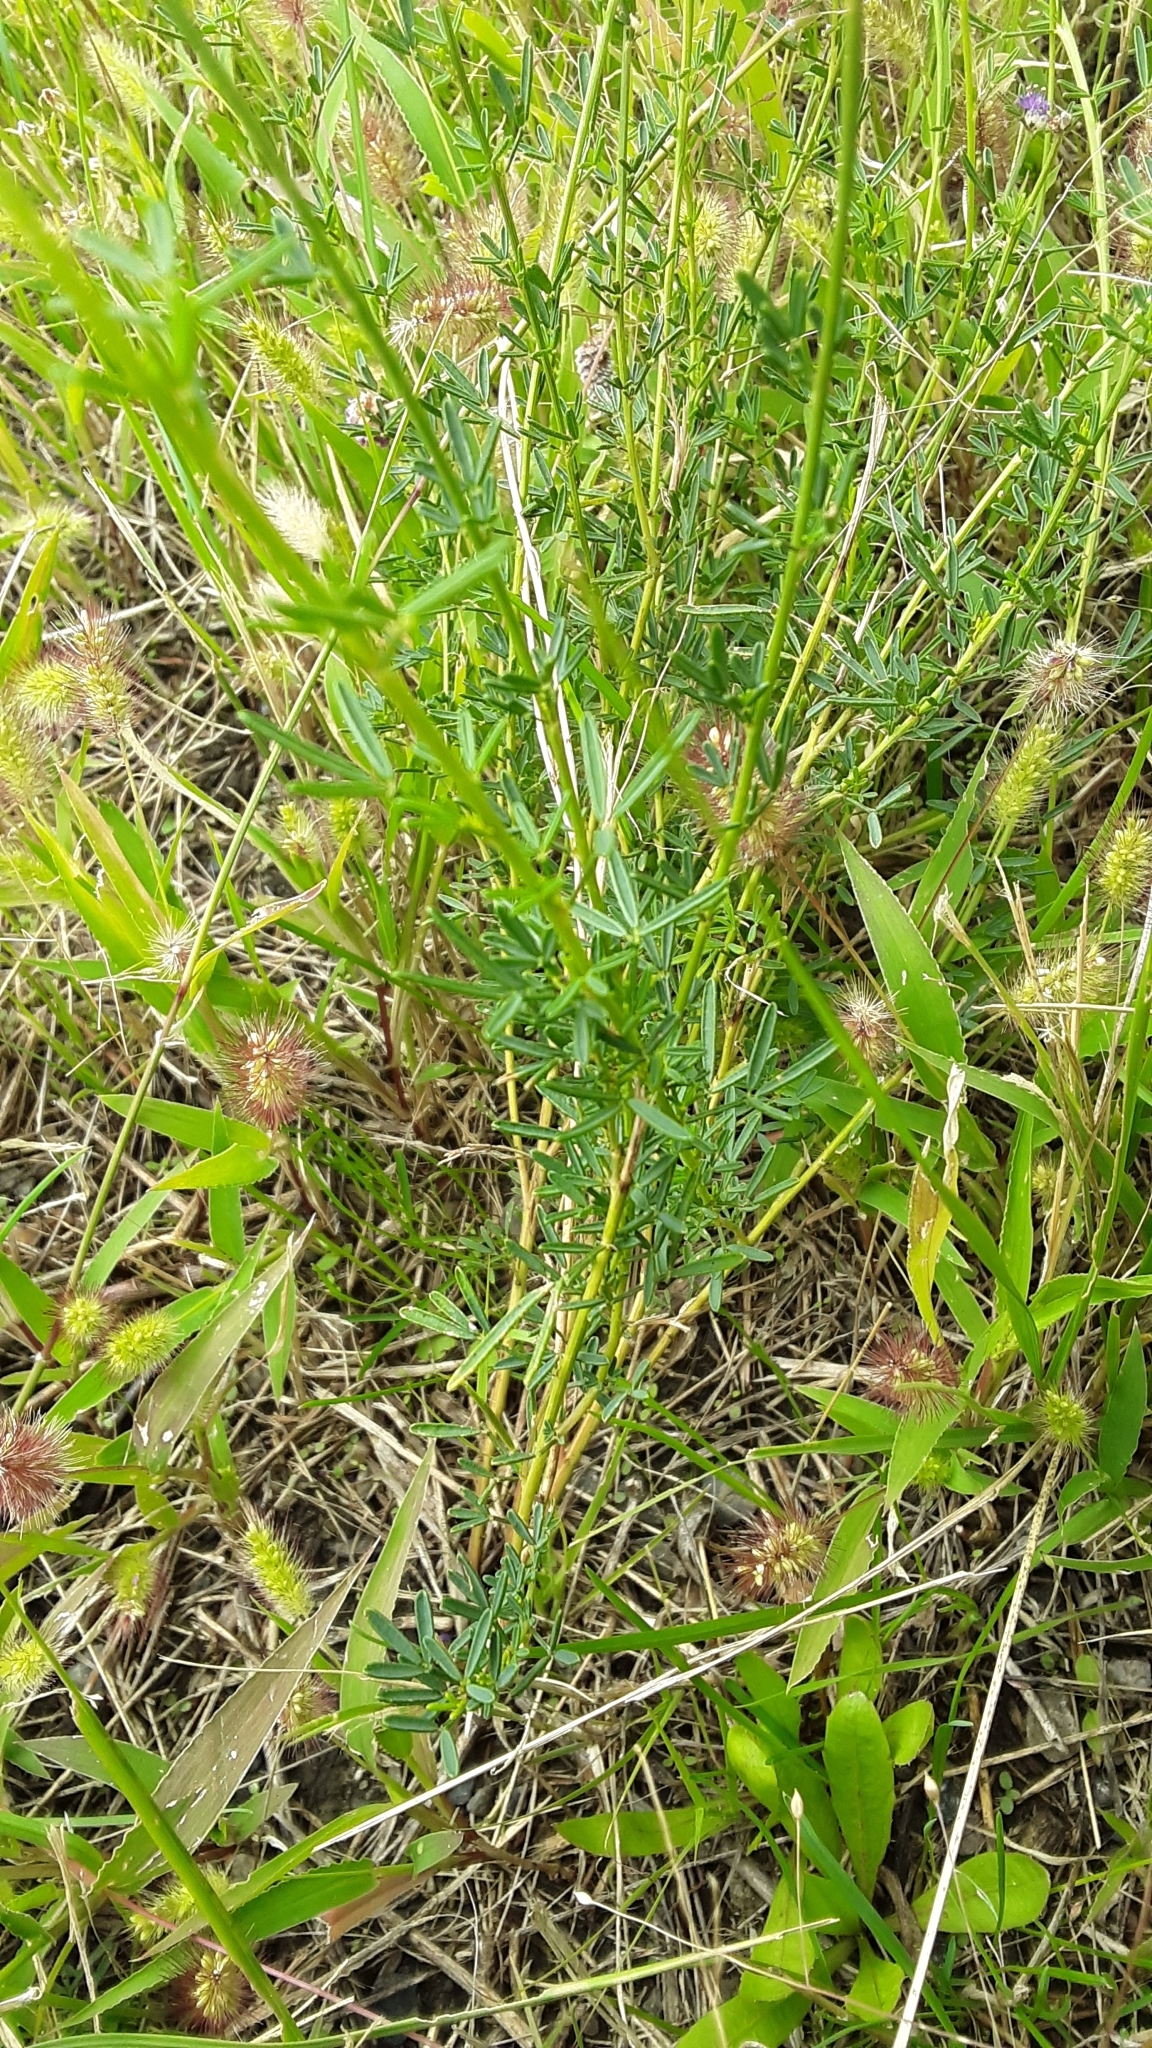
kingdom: Plantae
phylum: Tracheophyta
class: Magnoliopsida
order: Fabales
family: Fabaceae
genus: Dalea
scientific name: Dalea purpurea
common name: Purple prairie-clover
